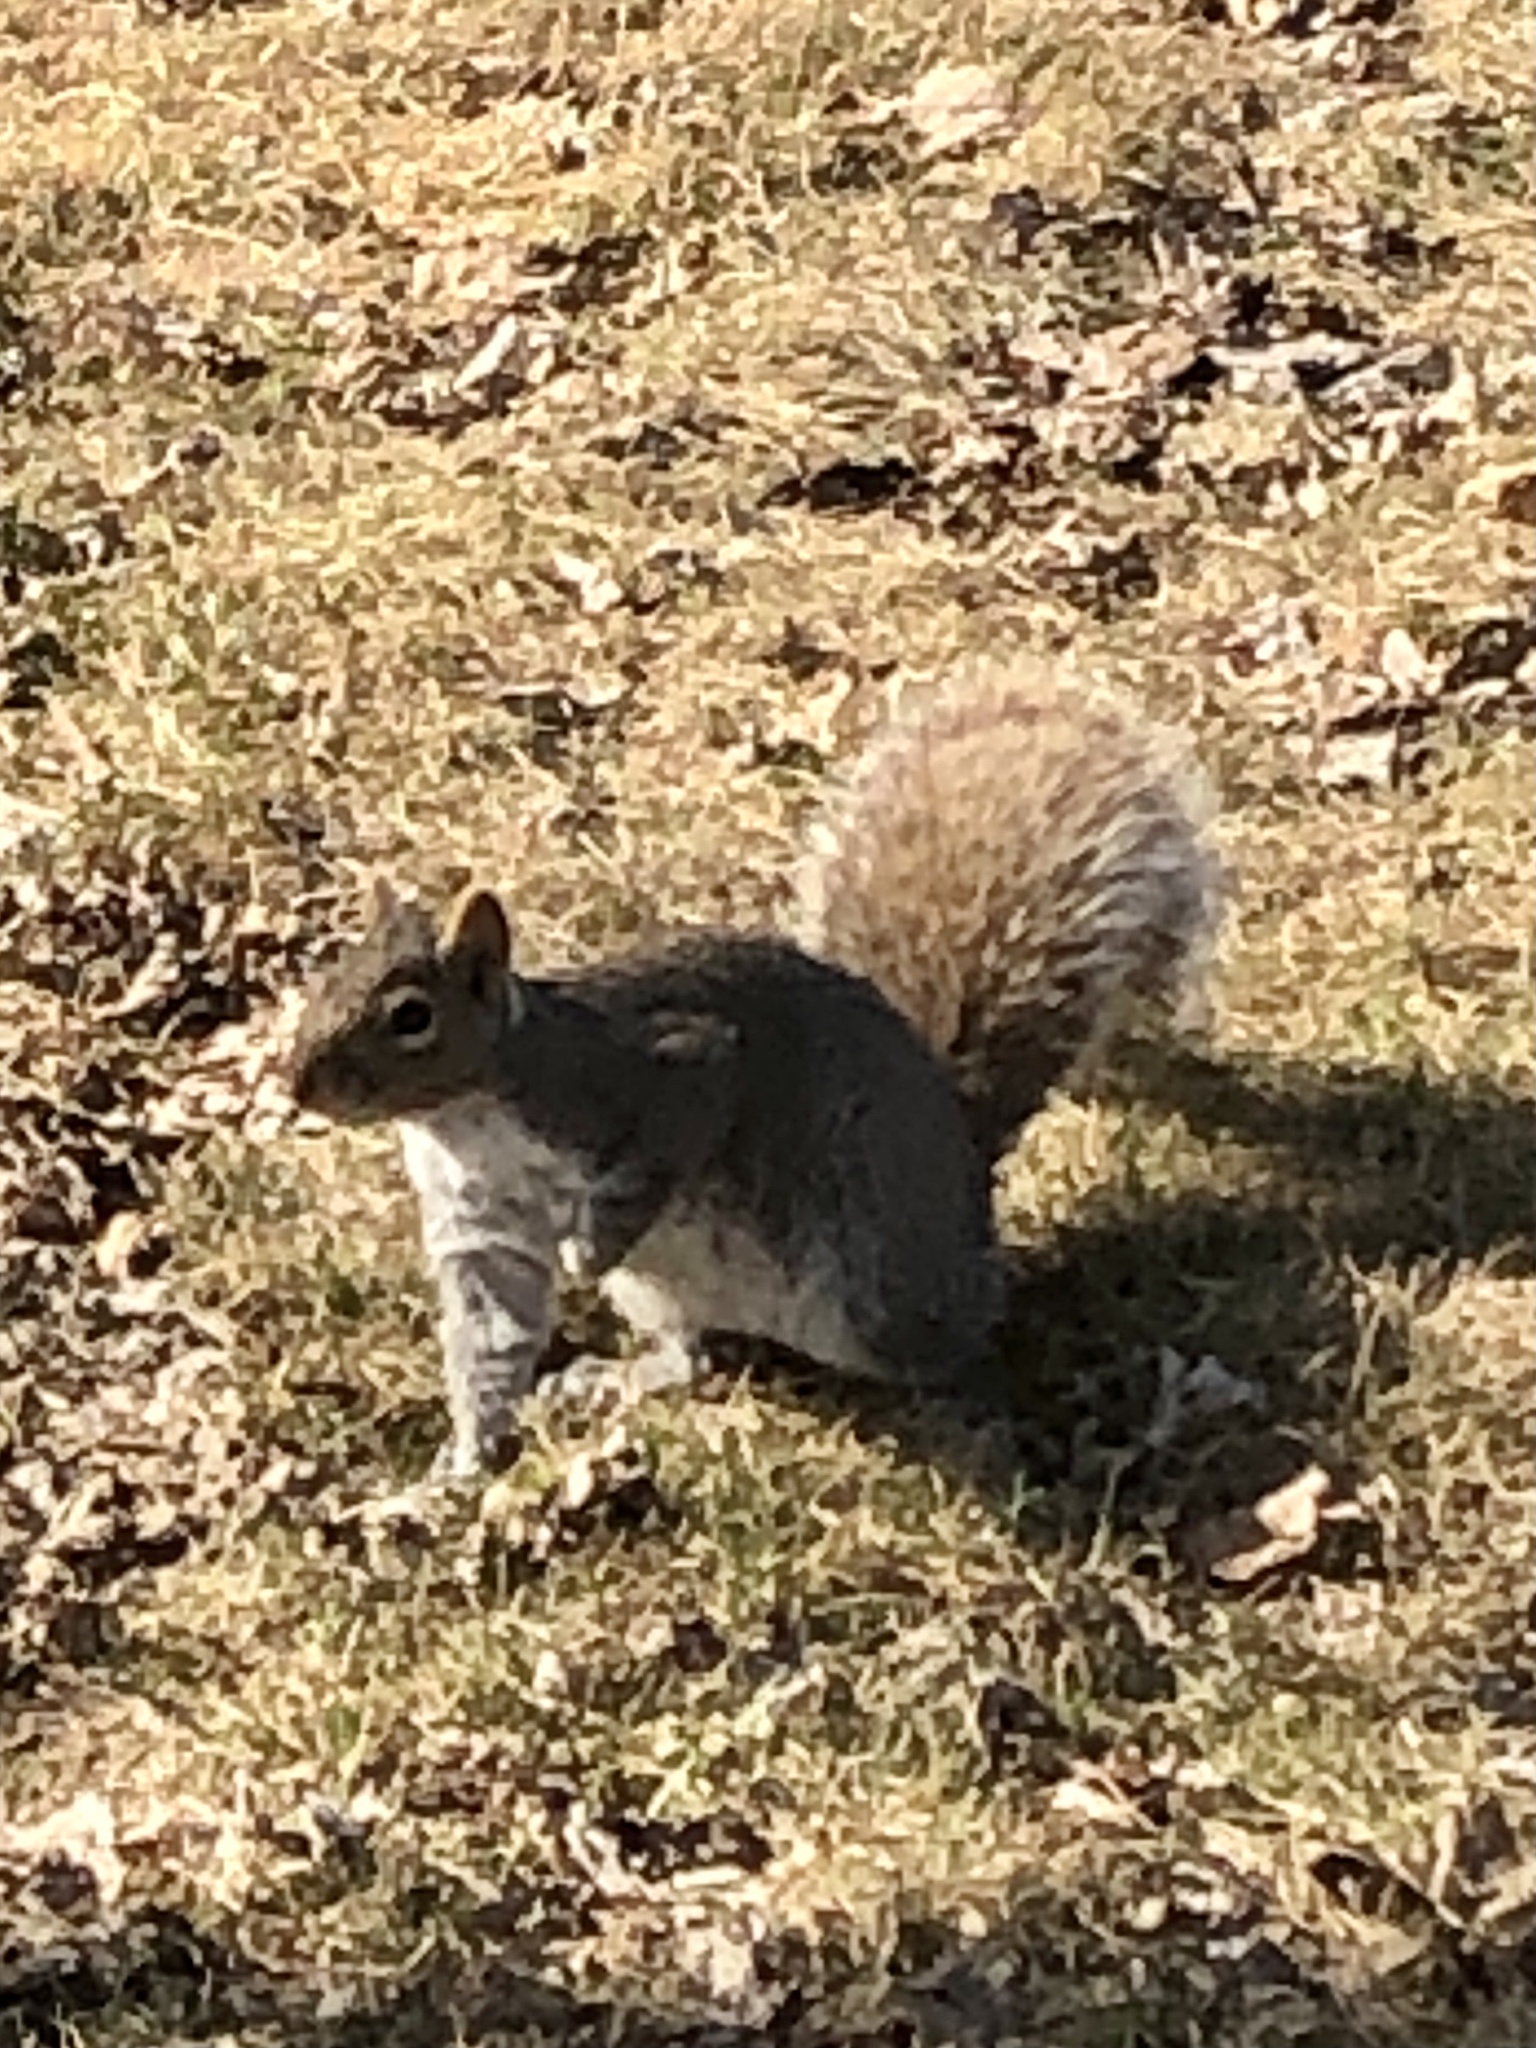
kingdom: Animalia
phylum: Chordata
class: Mammalia
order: Rodentia
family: Sciuridae
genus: Sciurus
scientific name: Sciurus carolinensis
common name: Eastern gray squirrel
